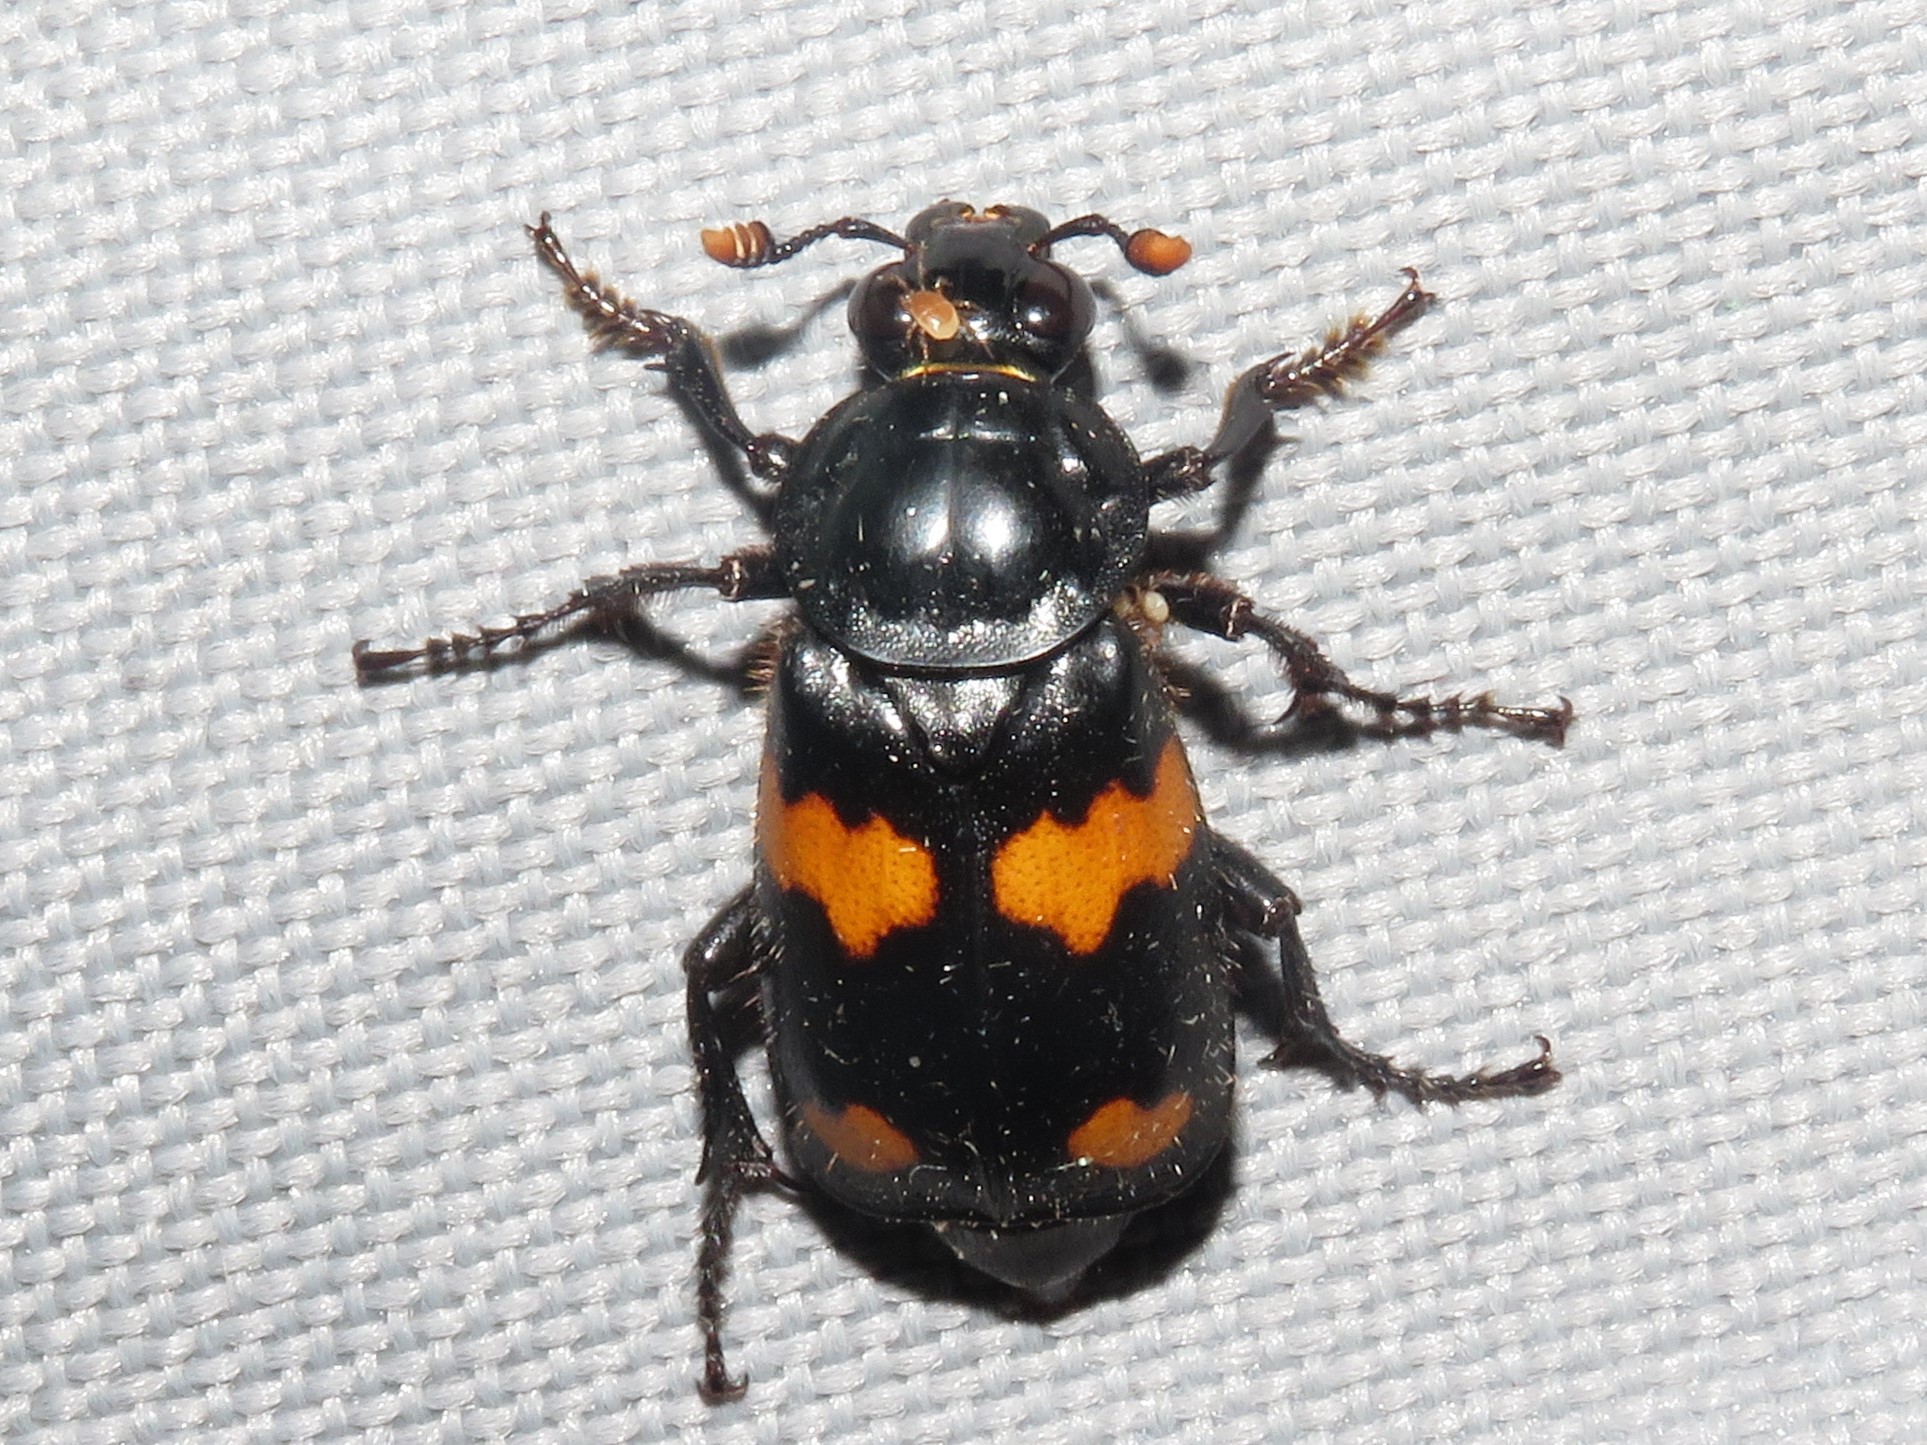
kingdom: Animalia
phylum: Arthropoda
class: Insecta
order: Coleoptera
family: Staphylinidae
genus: Nicrophorus
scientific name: Nicrophorus orbicollis
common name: Roundneck sexton beetle
